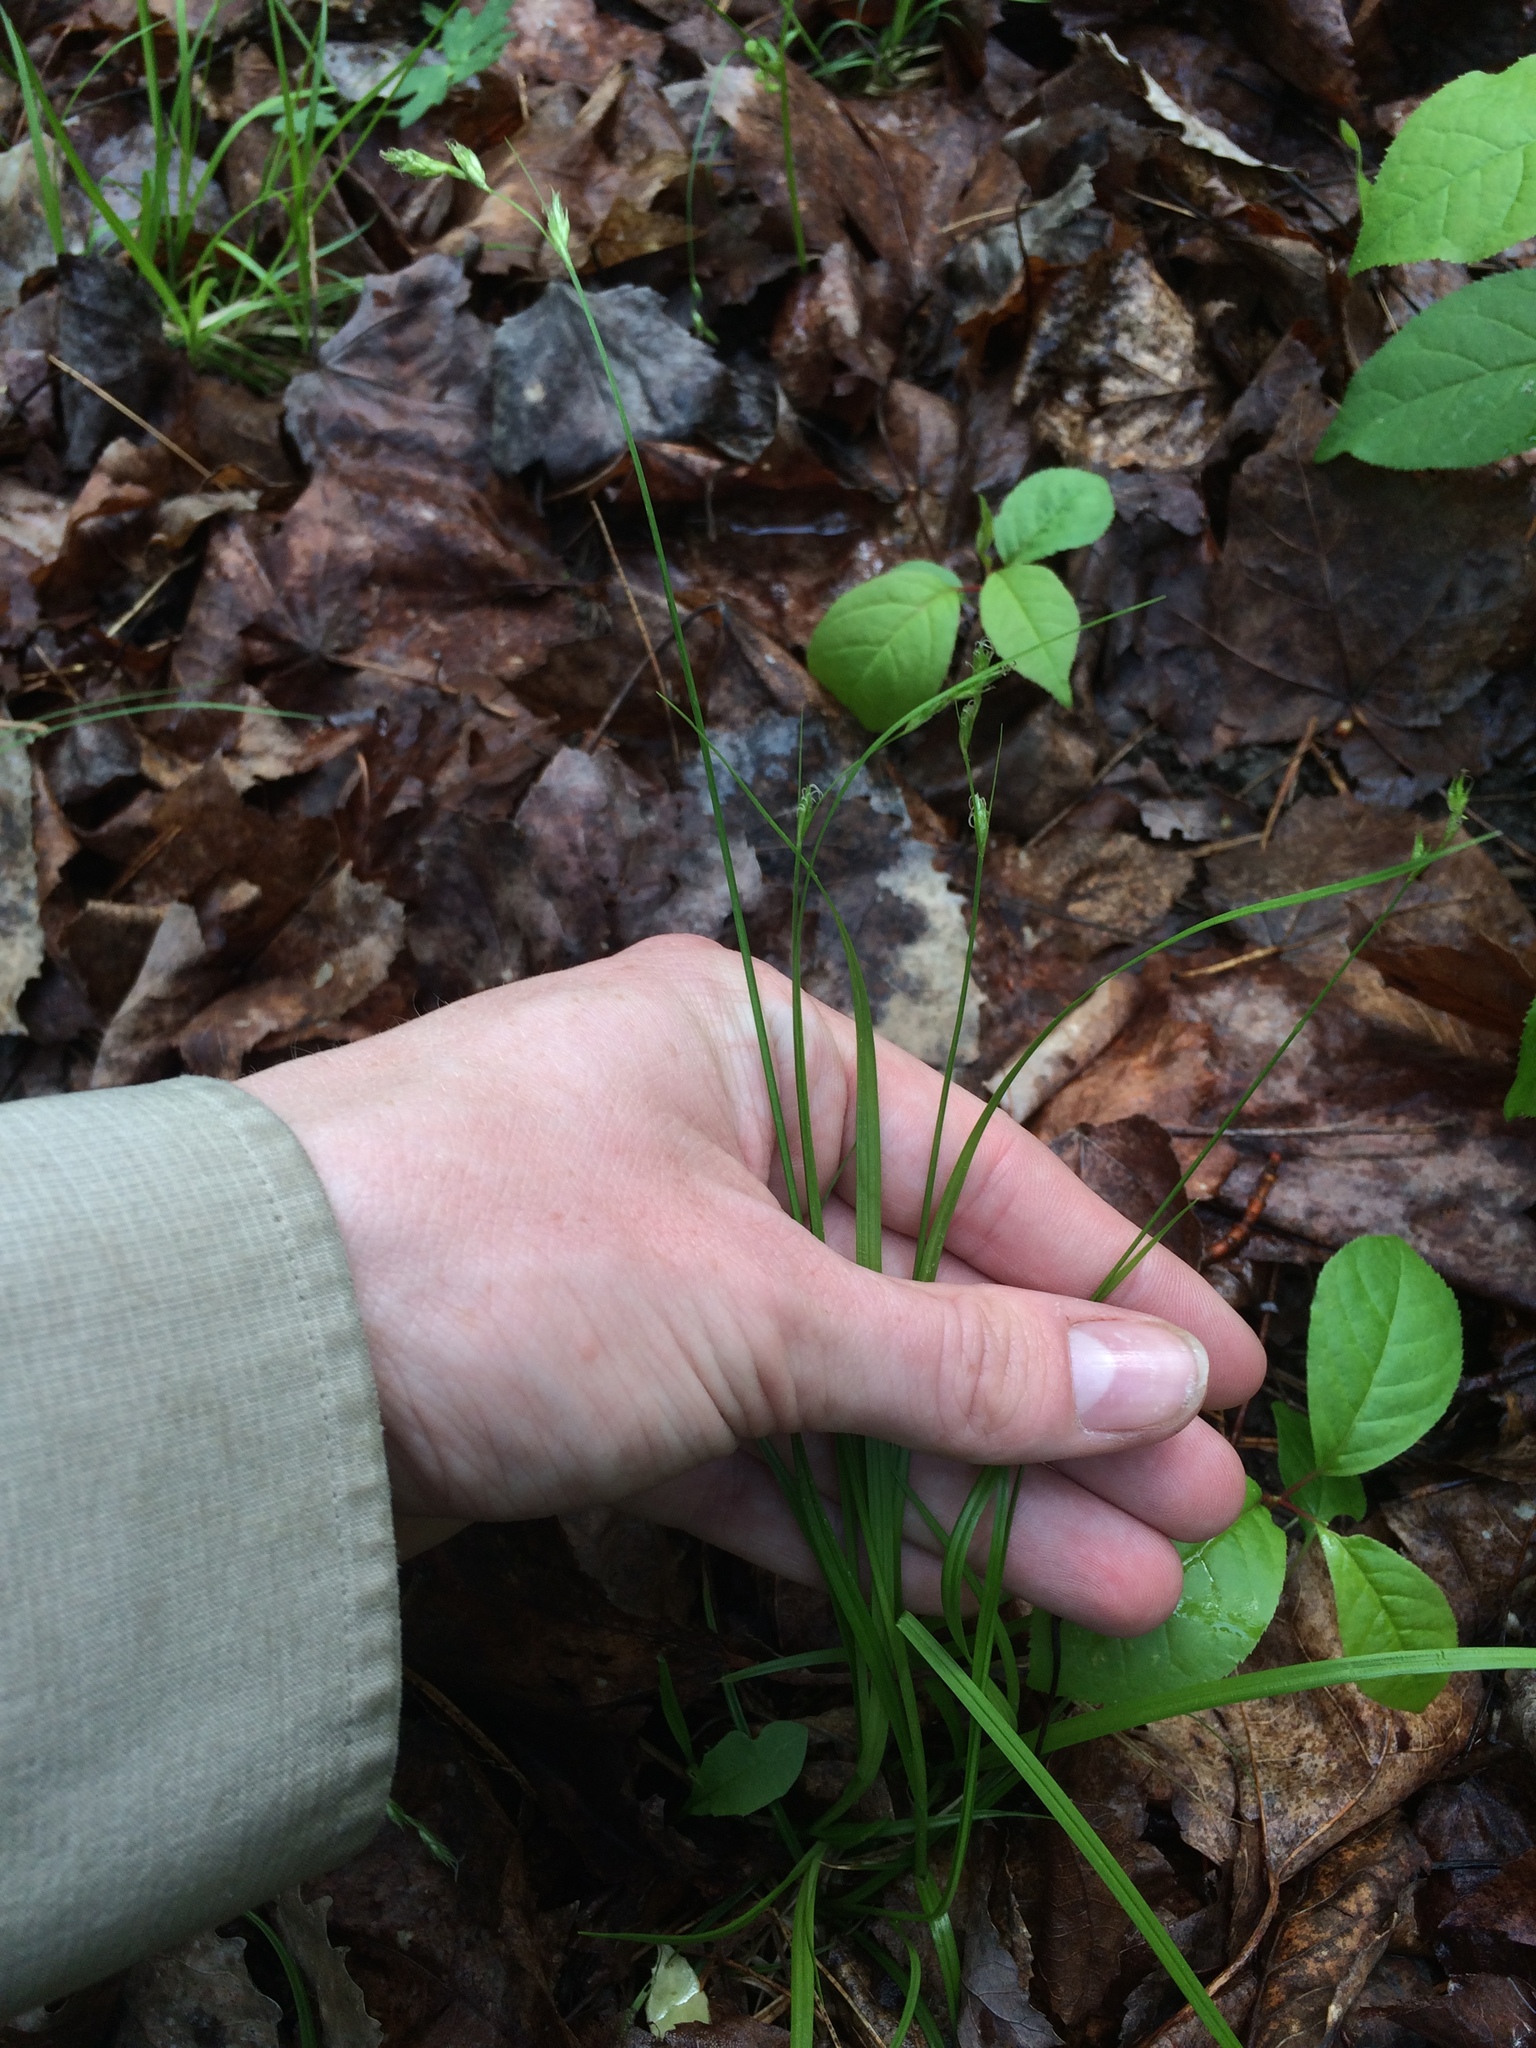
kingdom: Plantae
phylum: Tracheophyta
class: Liliopsida
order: Poales
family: Cyperaceae
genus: Carex
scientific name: Carex deweyana
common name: Dewey's sedge
